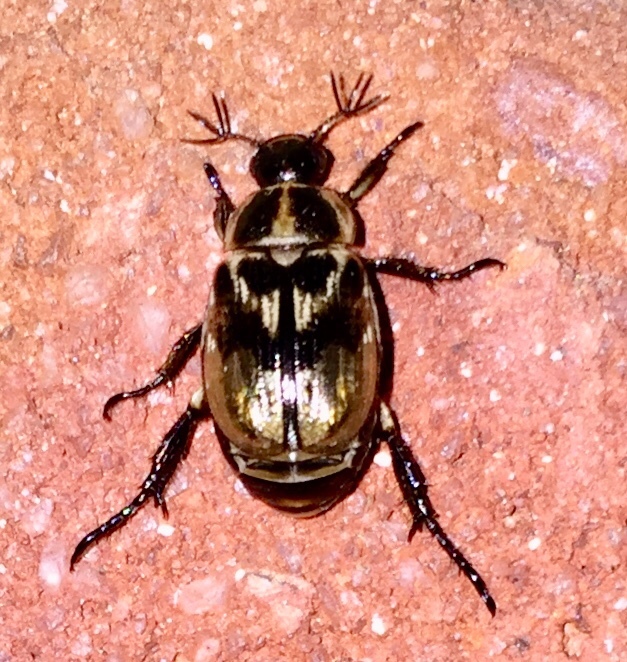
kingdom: Animalia
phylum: Arthropoda
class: Insecta
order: Coleoptera
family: Scarabaeidae
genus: Exomala
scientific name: Exomala orientalis
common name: Oriental beetle
